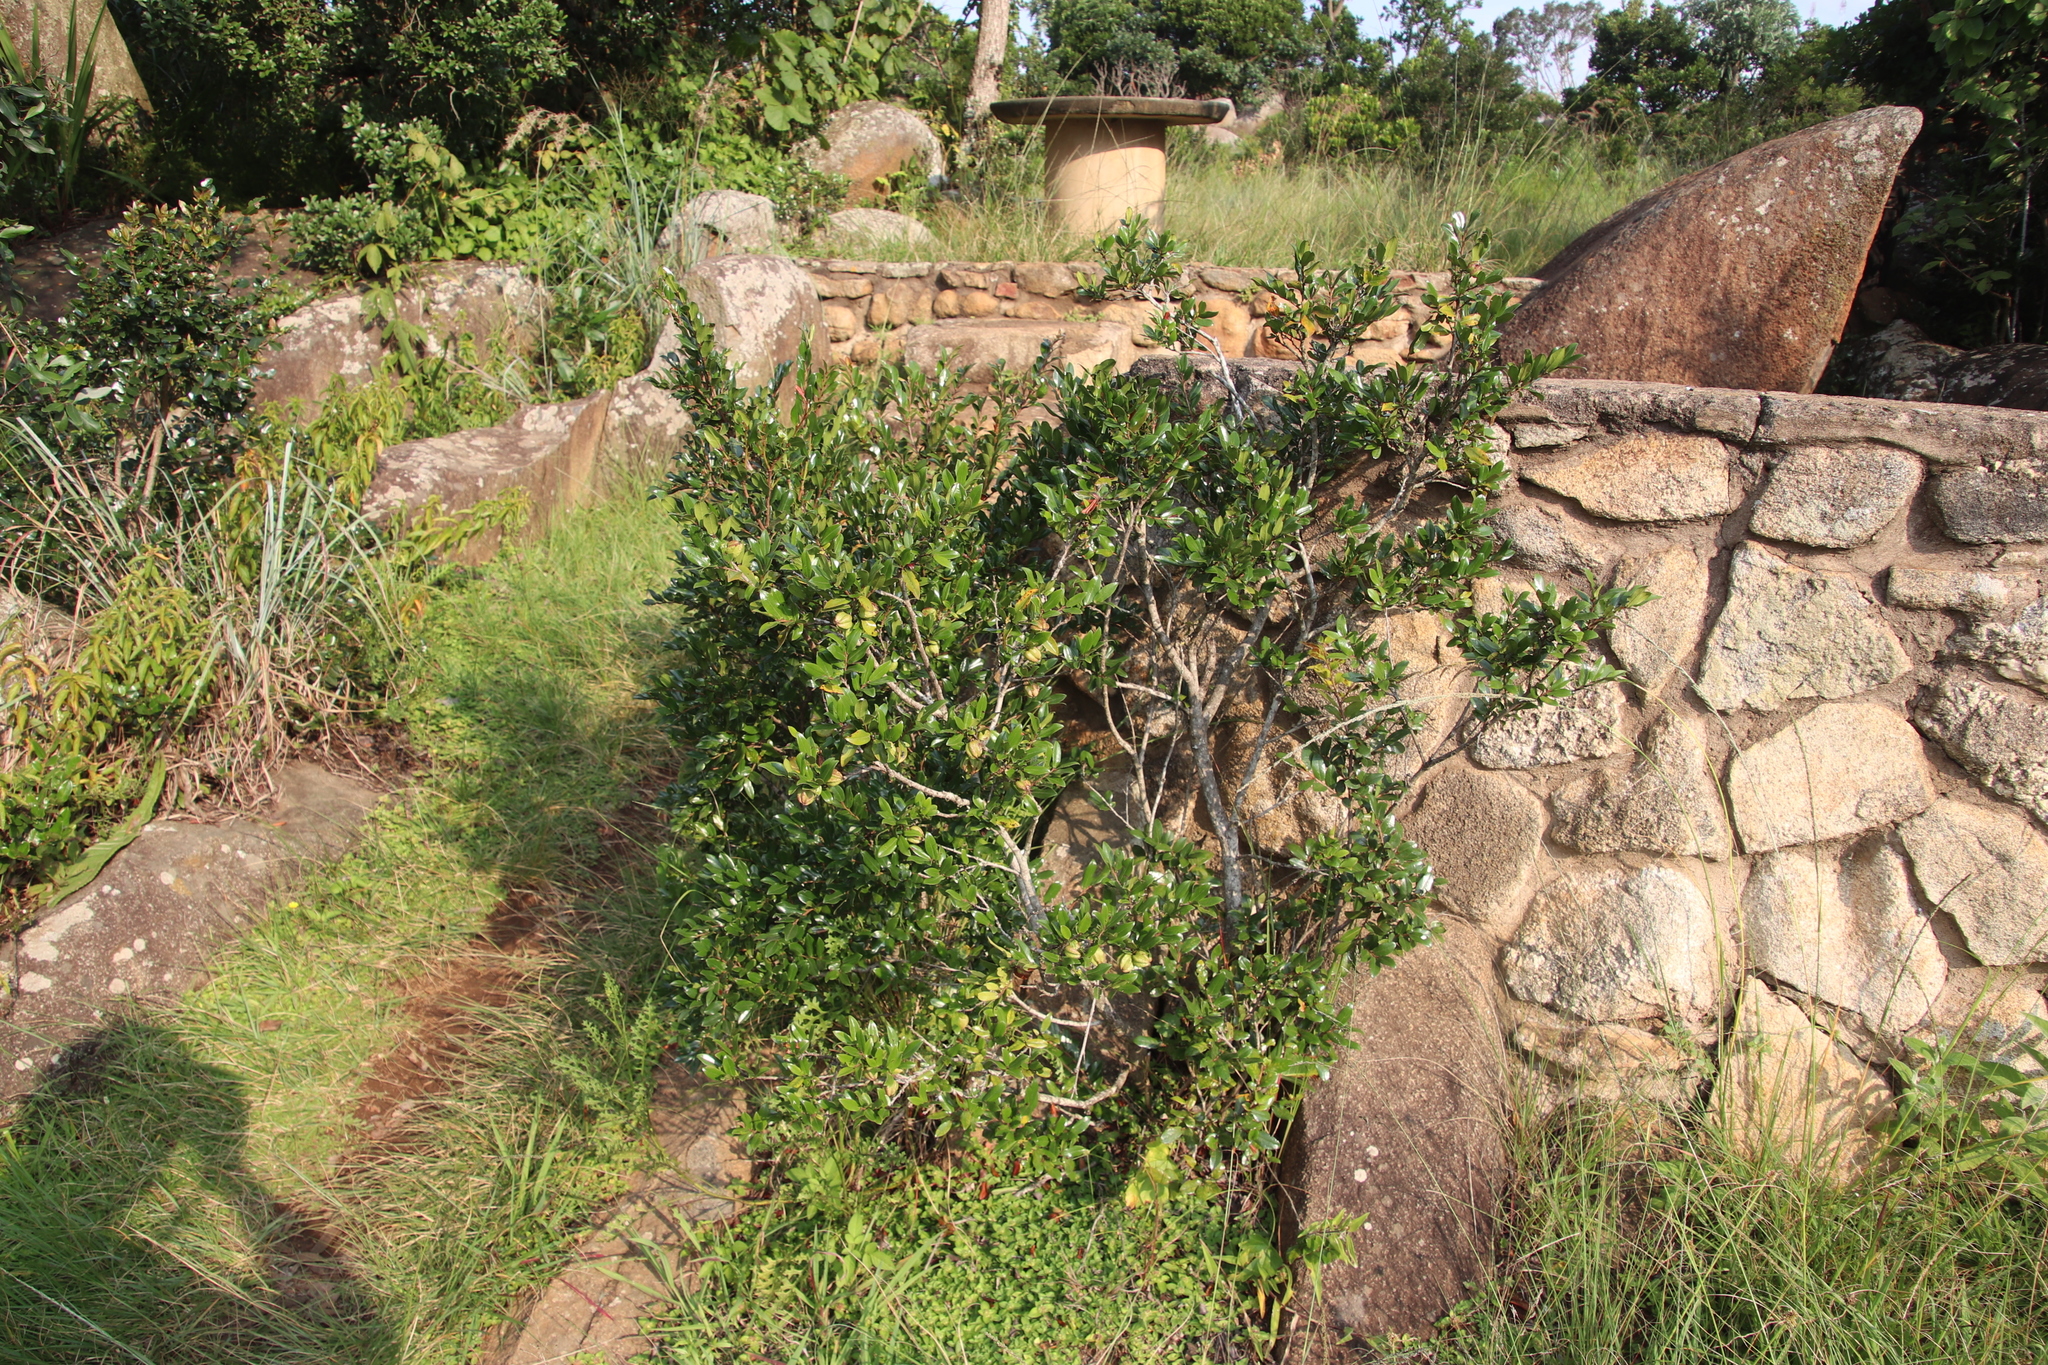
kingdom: Plantae
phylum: Tracheophyta
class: Magnoliopsida
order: Ericales
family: Ebenaceae
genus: Diospyros
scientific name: Diospyros whyteana
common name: Bladder-nut
